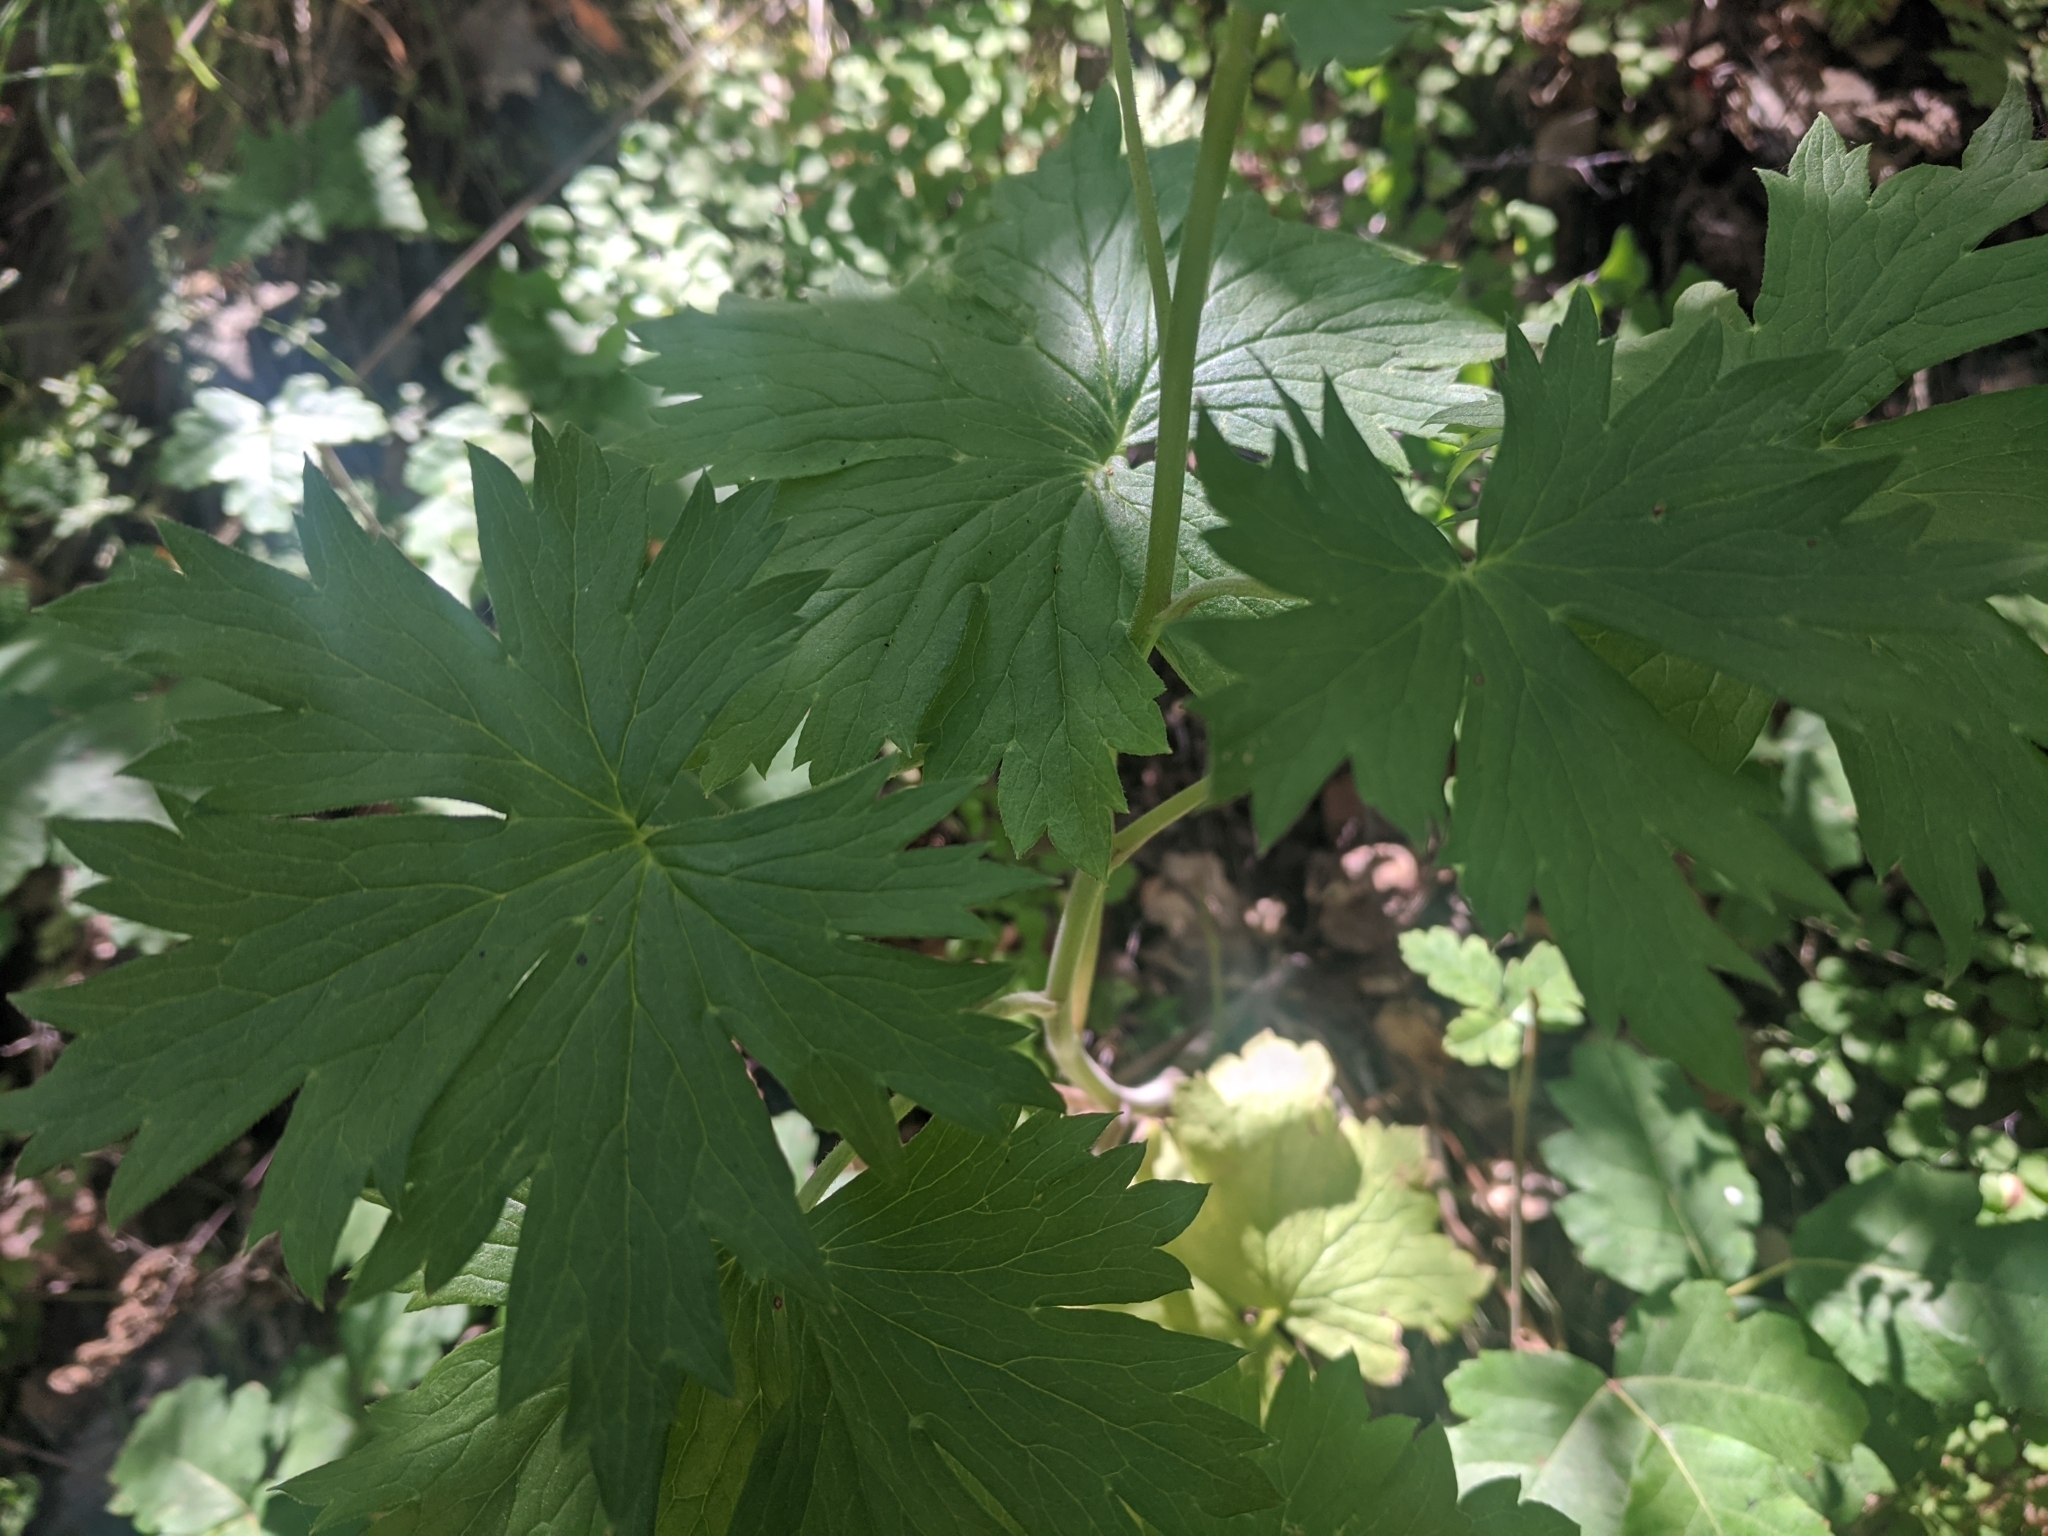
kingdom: Plantae
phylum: Tracheophyta
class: Magnoliopsida
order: Ranunculales
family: Ranunculaceae
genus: Delphinium
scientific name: Delphinium californicum
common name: California larkspur
